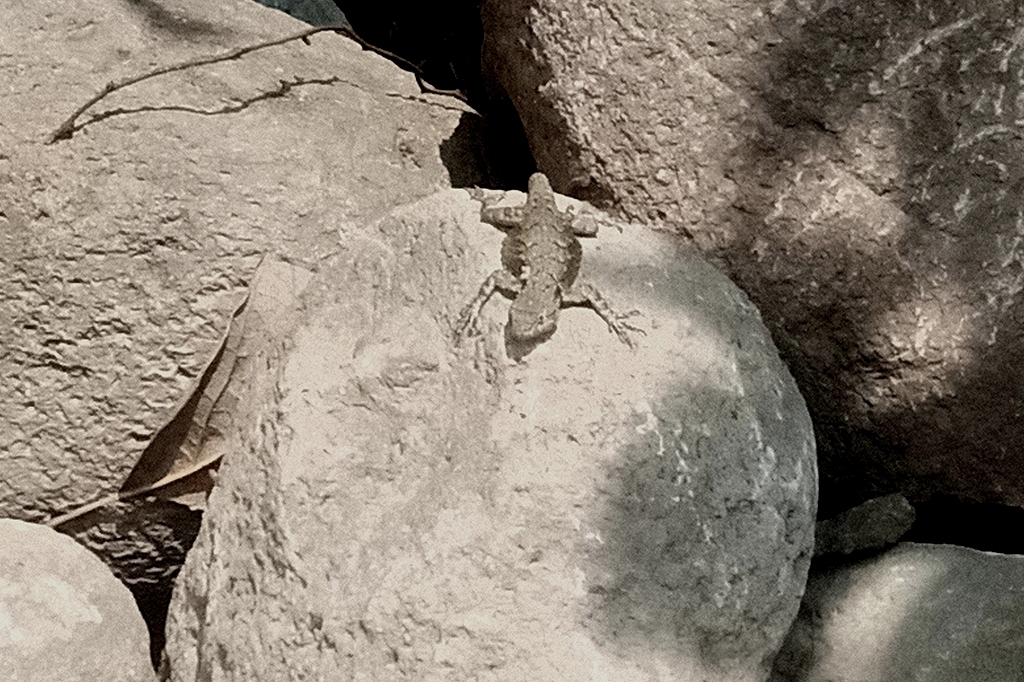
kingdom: Animalia
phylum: Chordata
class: Squamata
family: Phrynosomatidae
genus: Sceloporus
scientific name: Sceloporus grammicus
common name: Mesquite lizard
